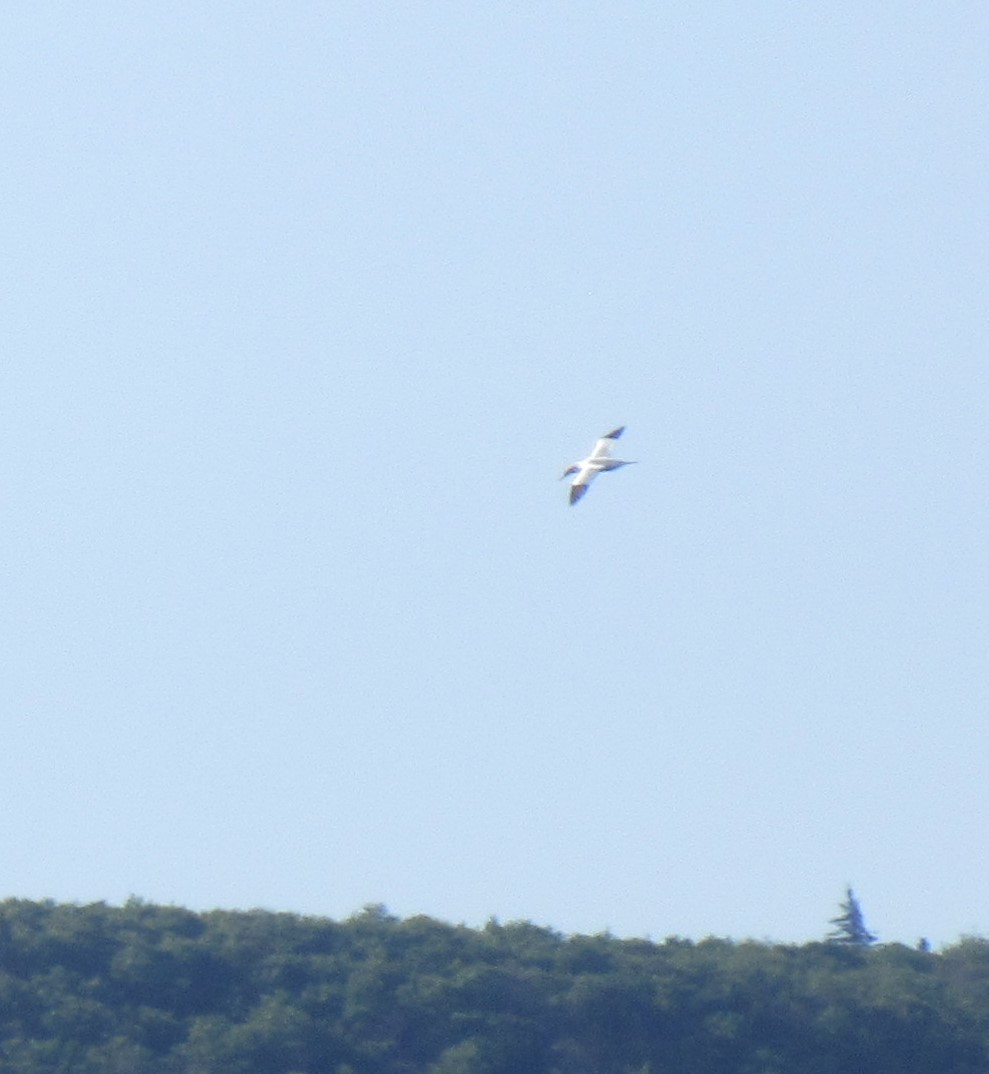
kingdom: Animalia
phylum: Chordata
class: Aves
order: Suliformes
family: Sulidae
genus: Morus
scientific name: Morus bassanus
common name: Northern gannet
